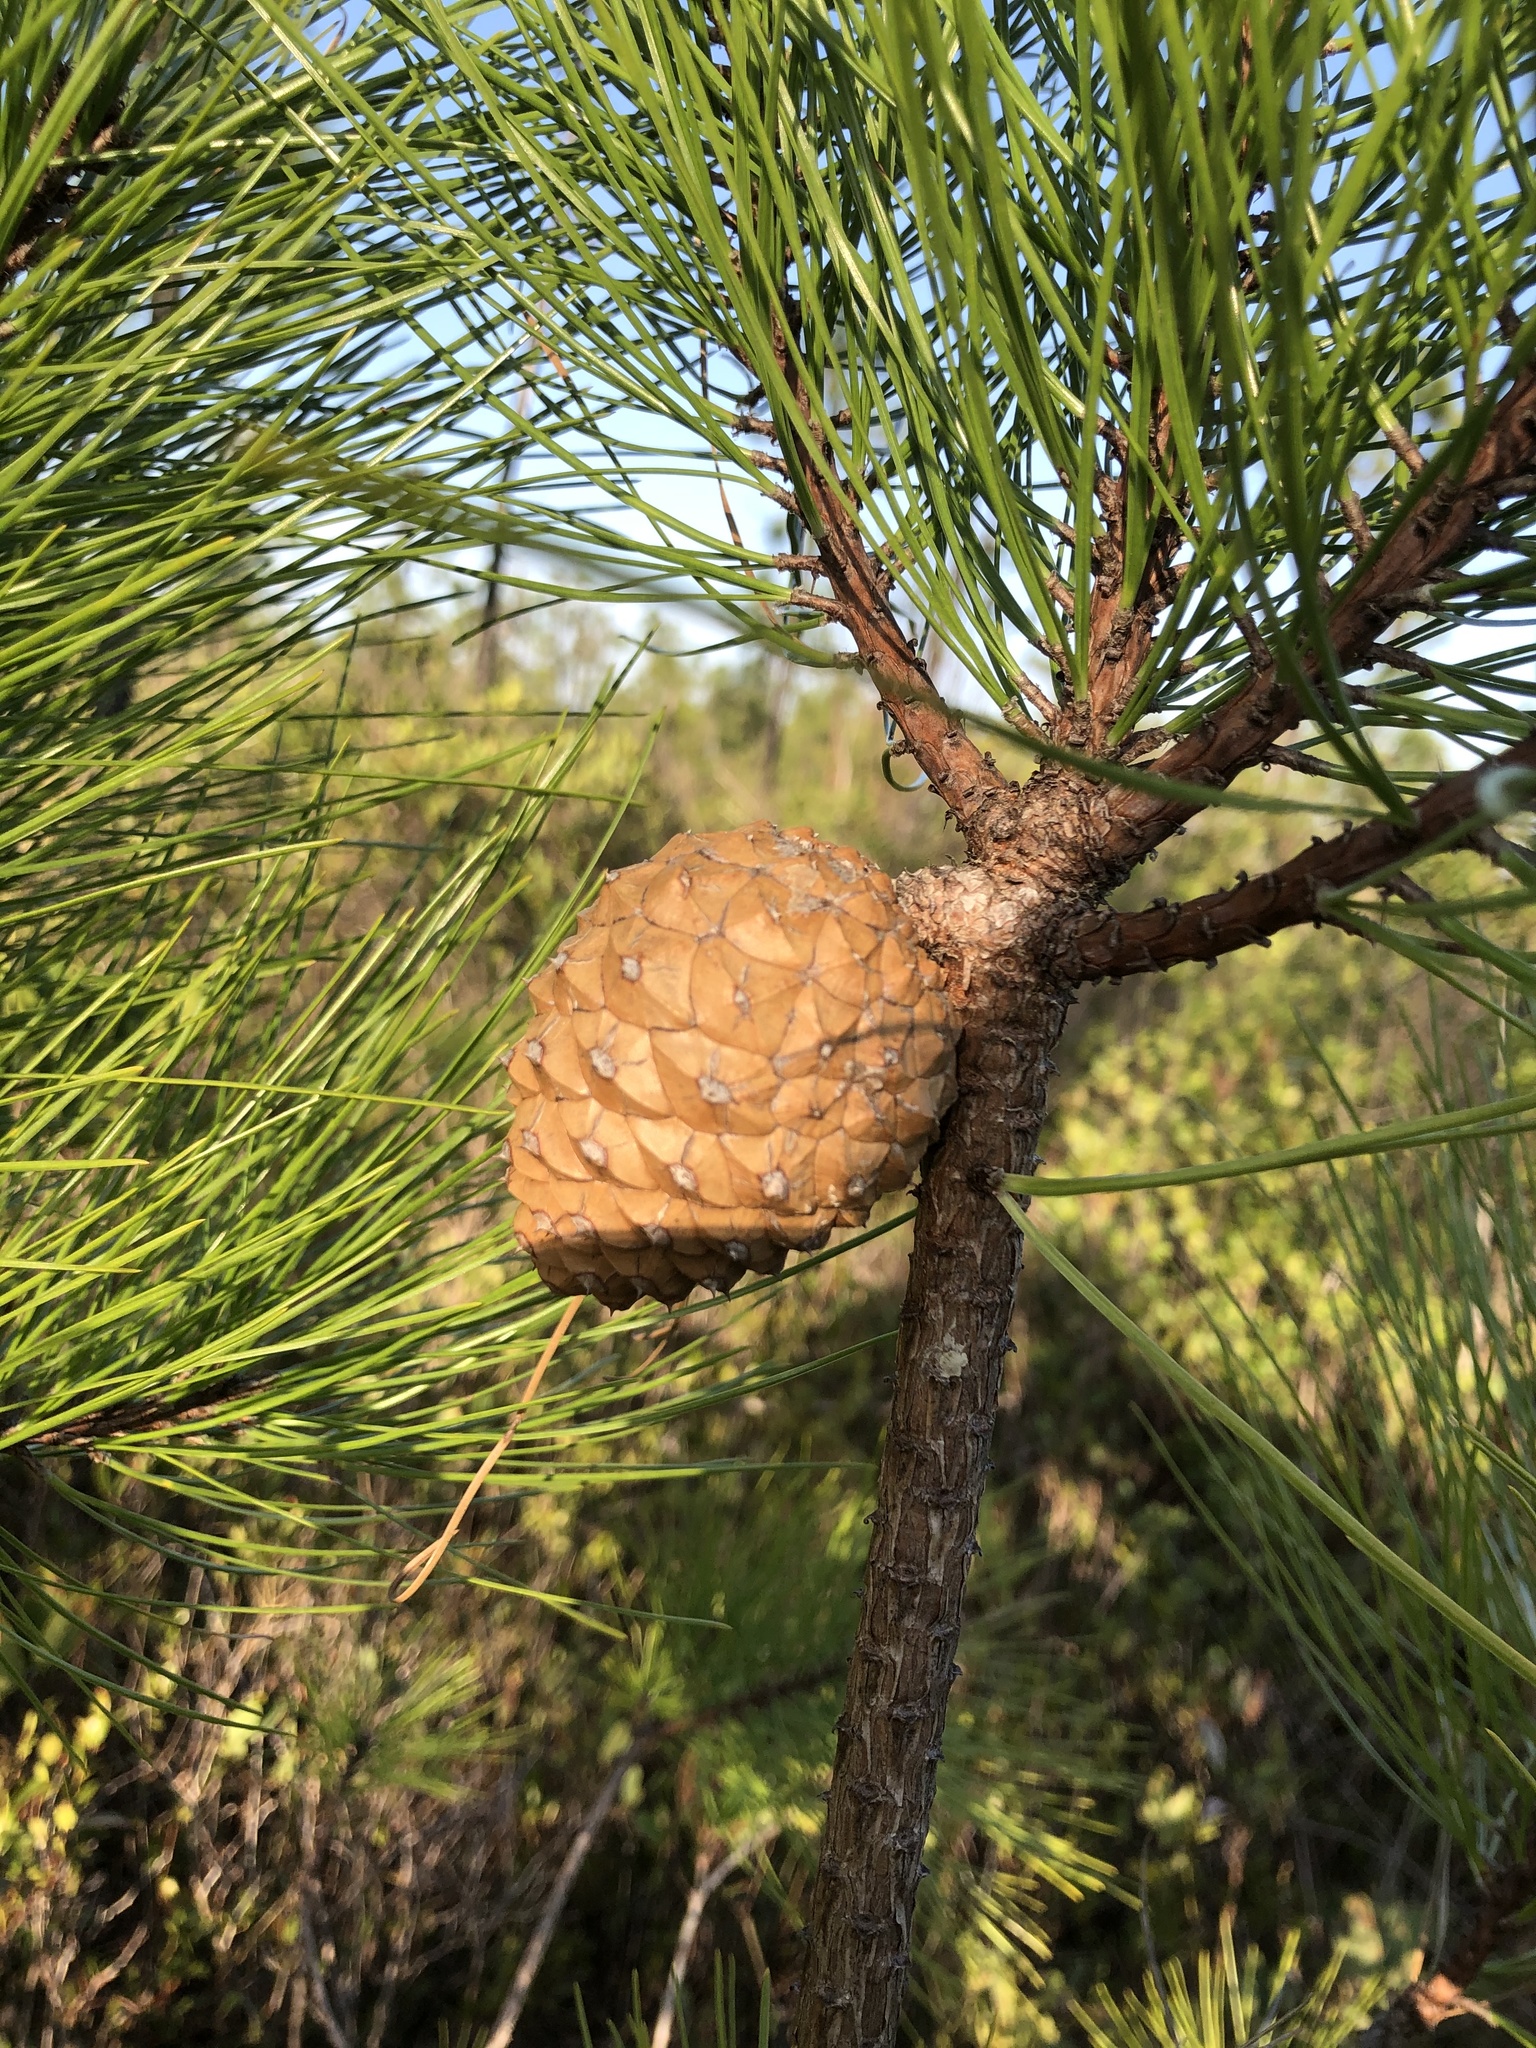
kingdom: Plantae
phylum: Tracheophyta
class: Pinopsida
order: Pinales
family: Pinaceae
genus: Pinus
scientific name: Pinus serotina
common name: Marsh pine
